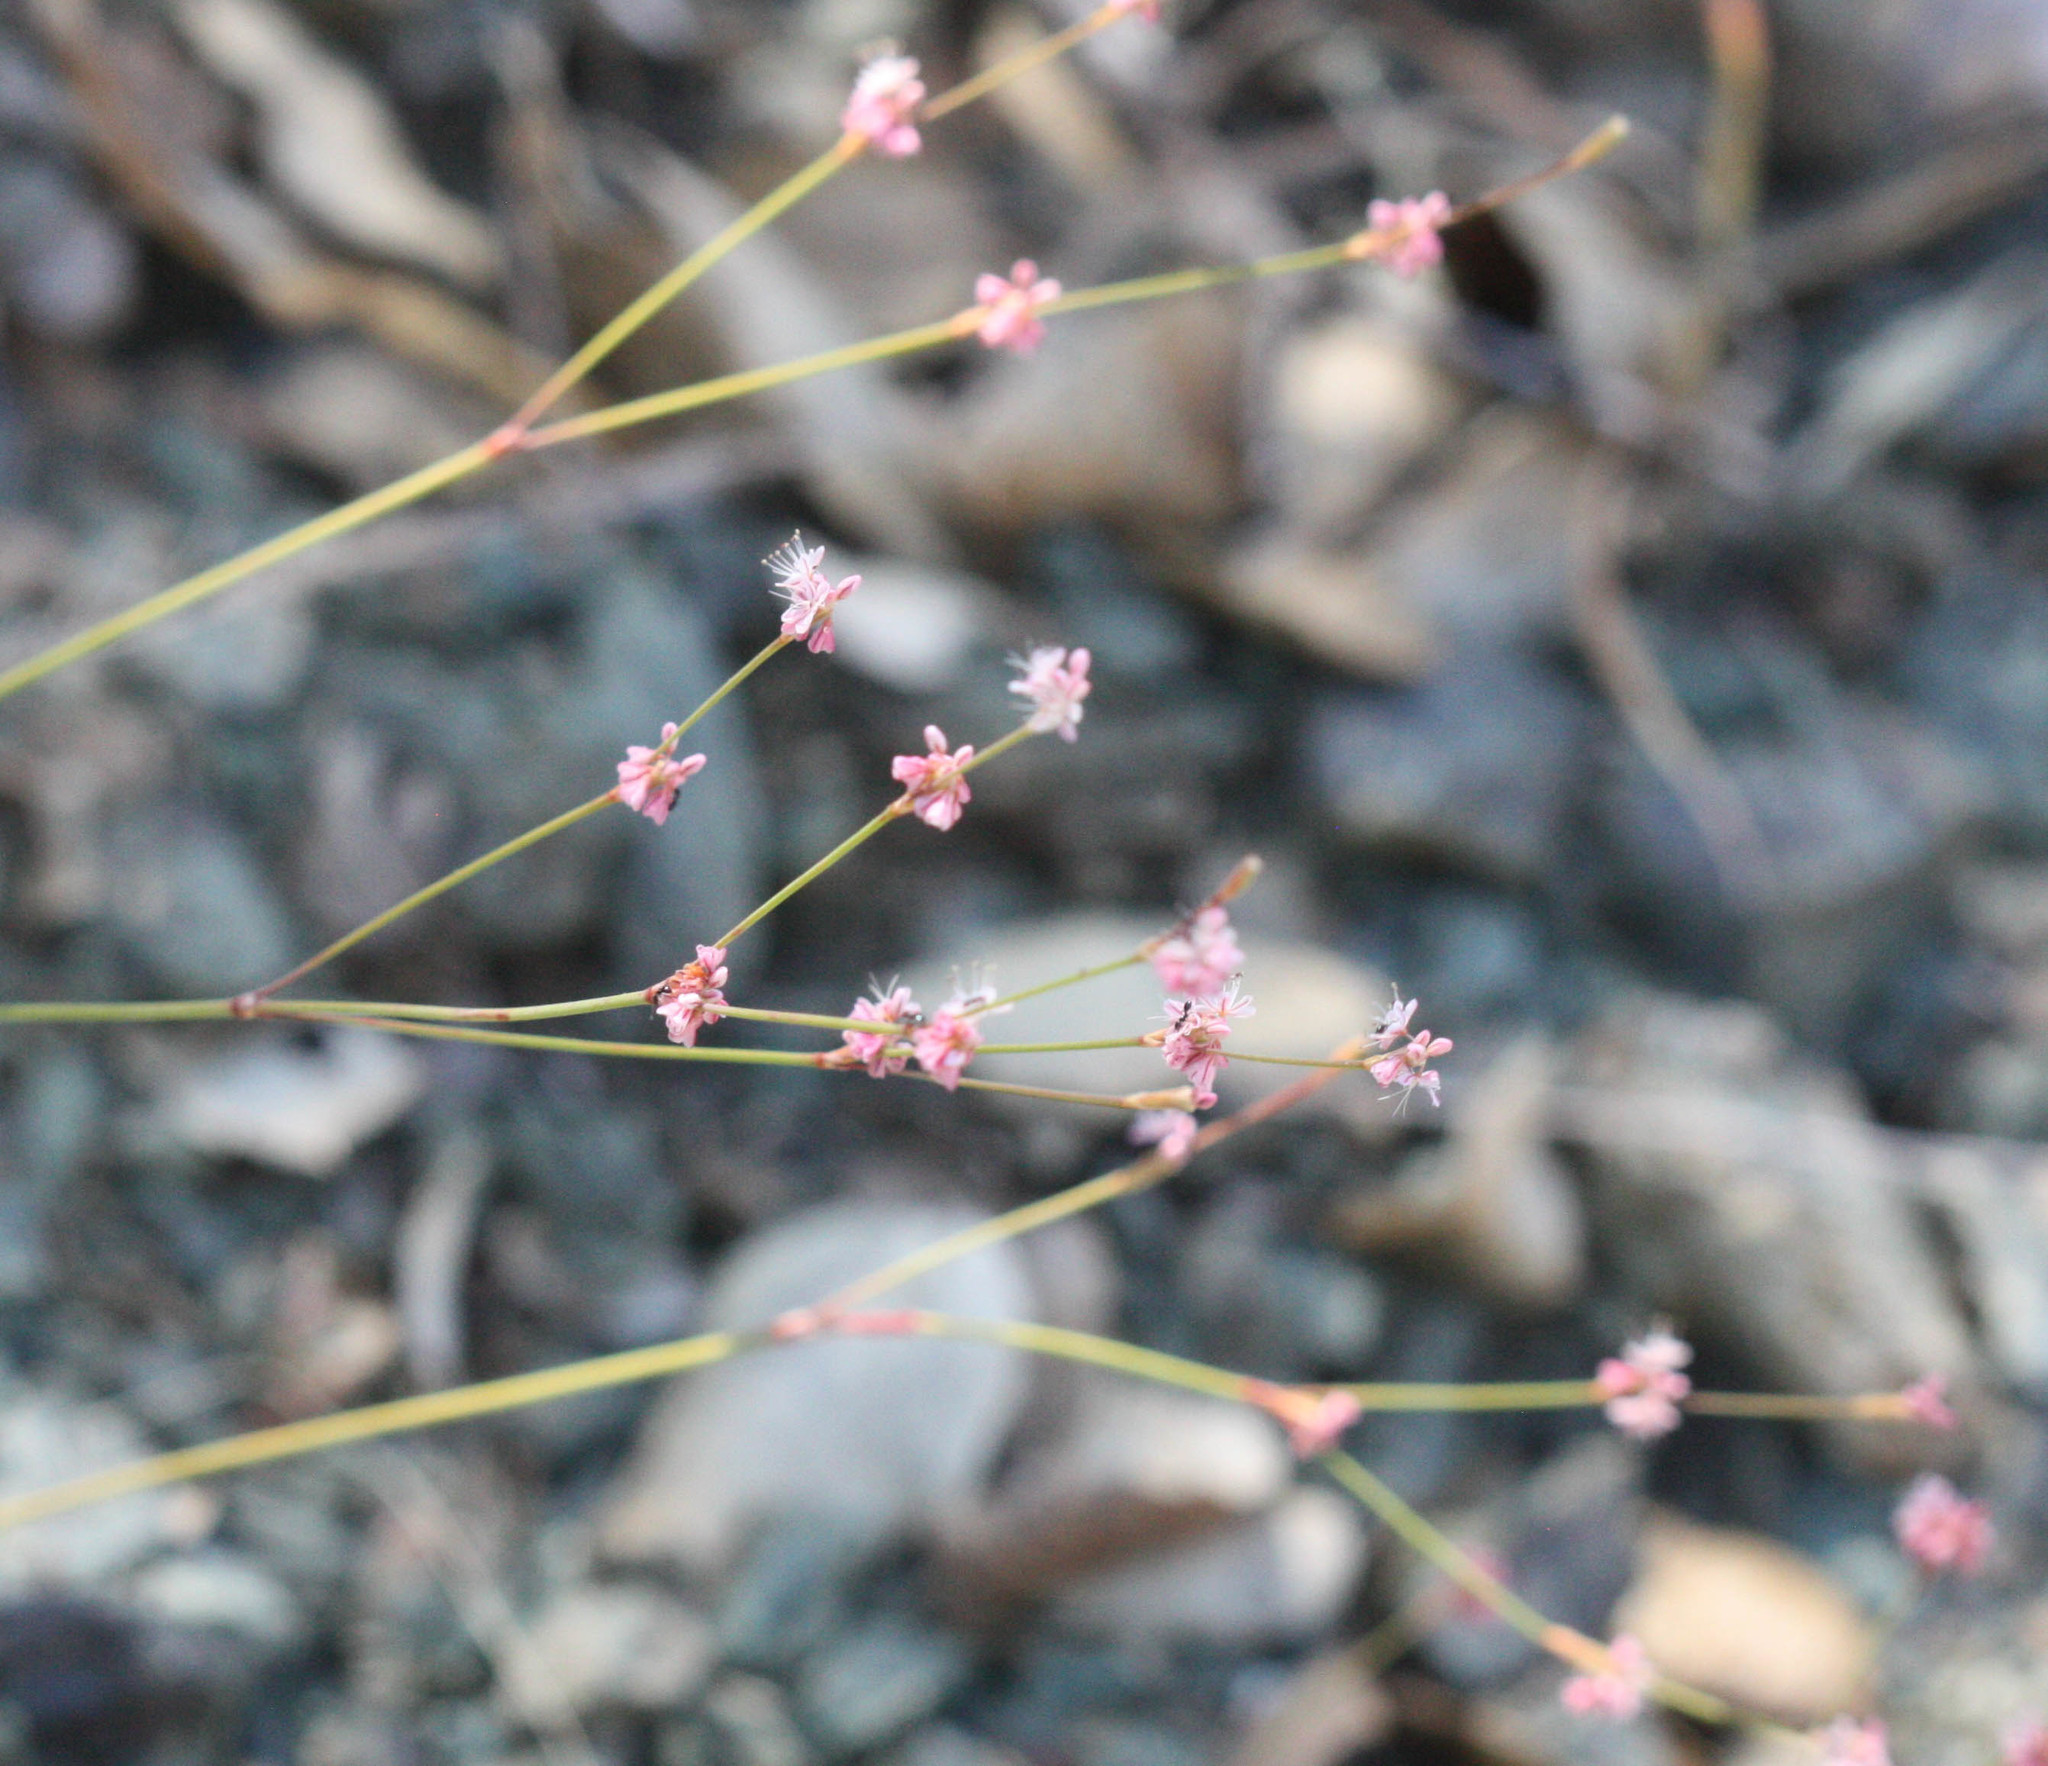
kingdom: Plantae
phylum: Tracheophyta
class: Magnoliopsida
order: Caryophyllales
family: Polygonaceae
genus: Eriogonum
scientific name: Eriogonum luteolum
